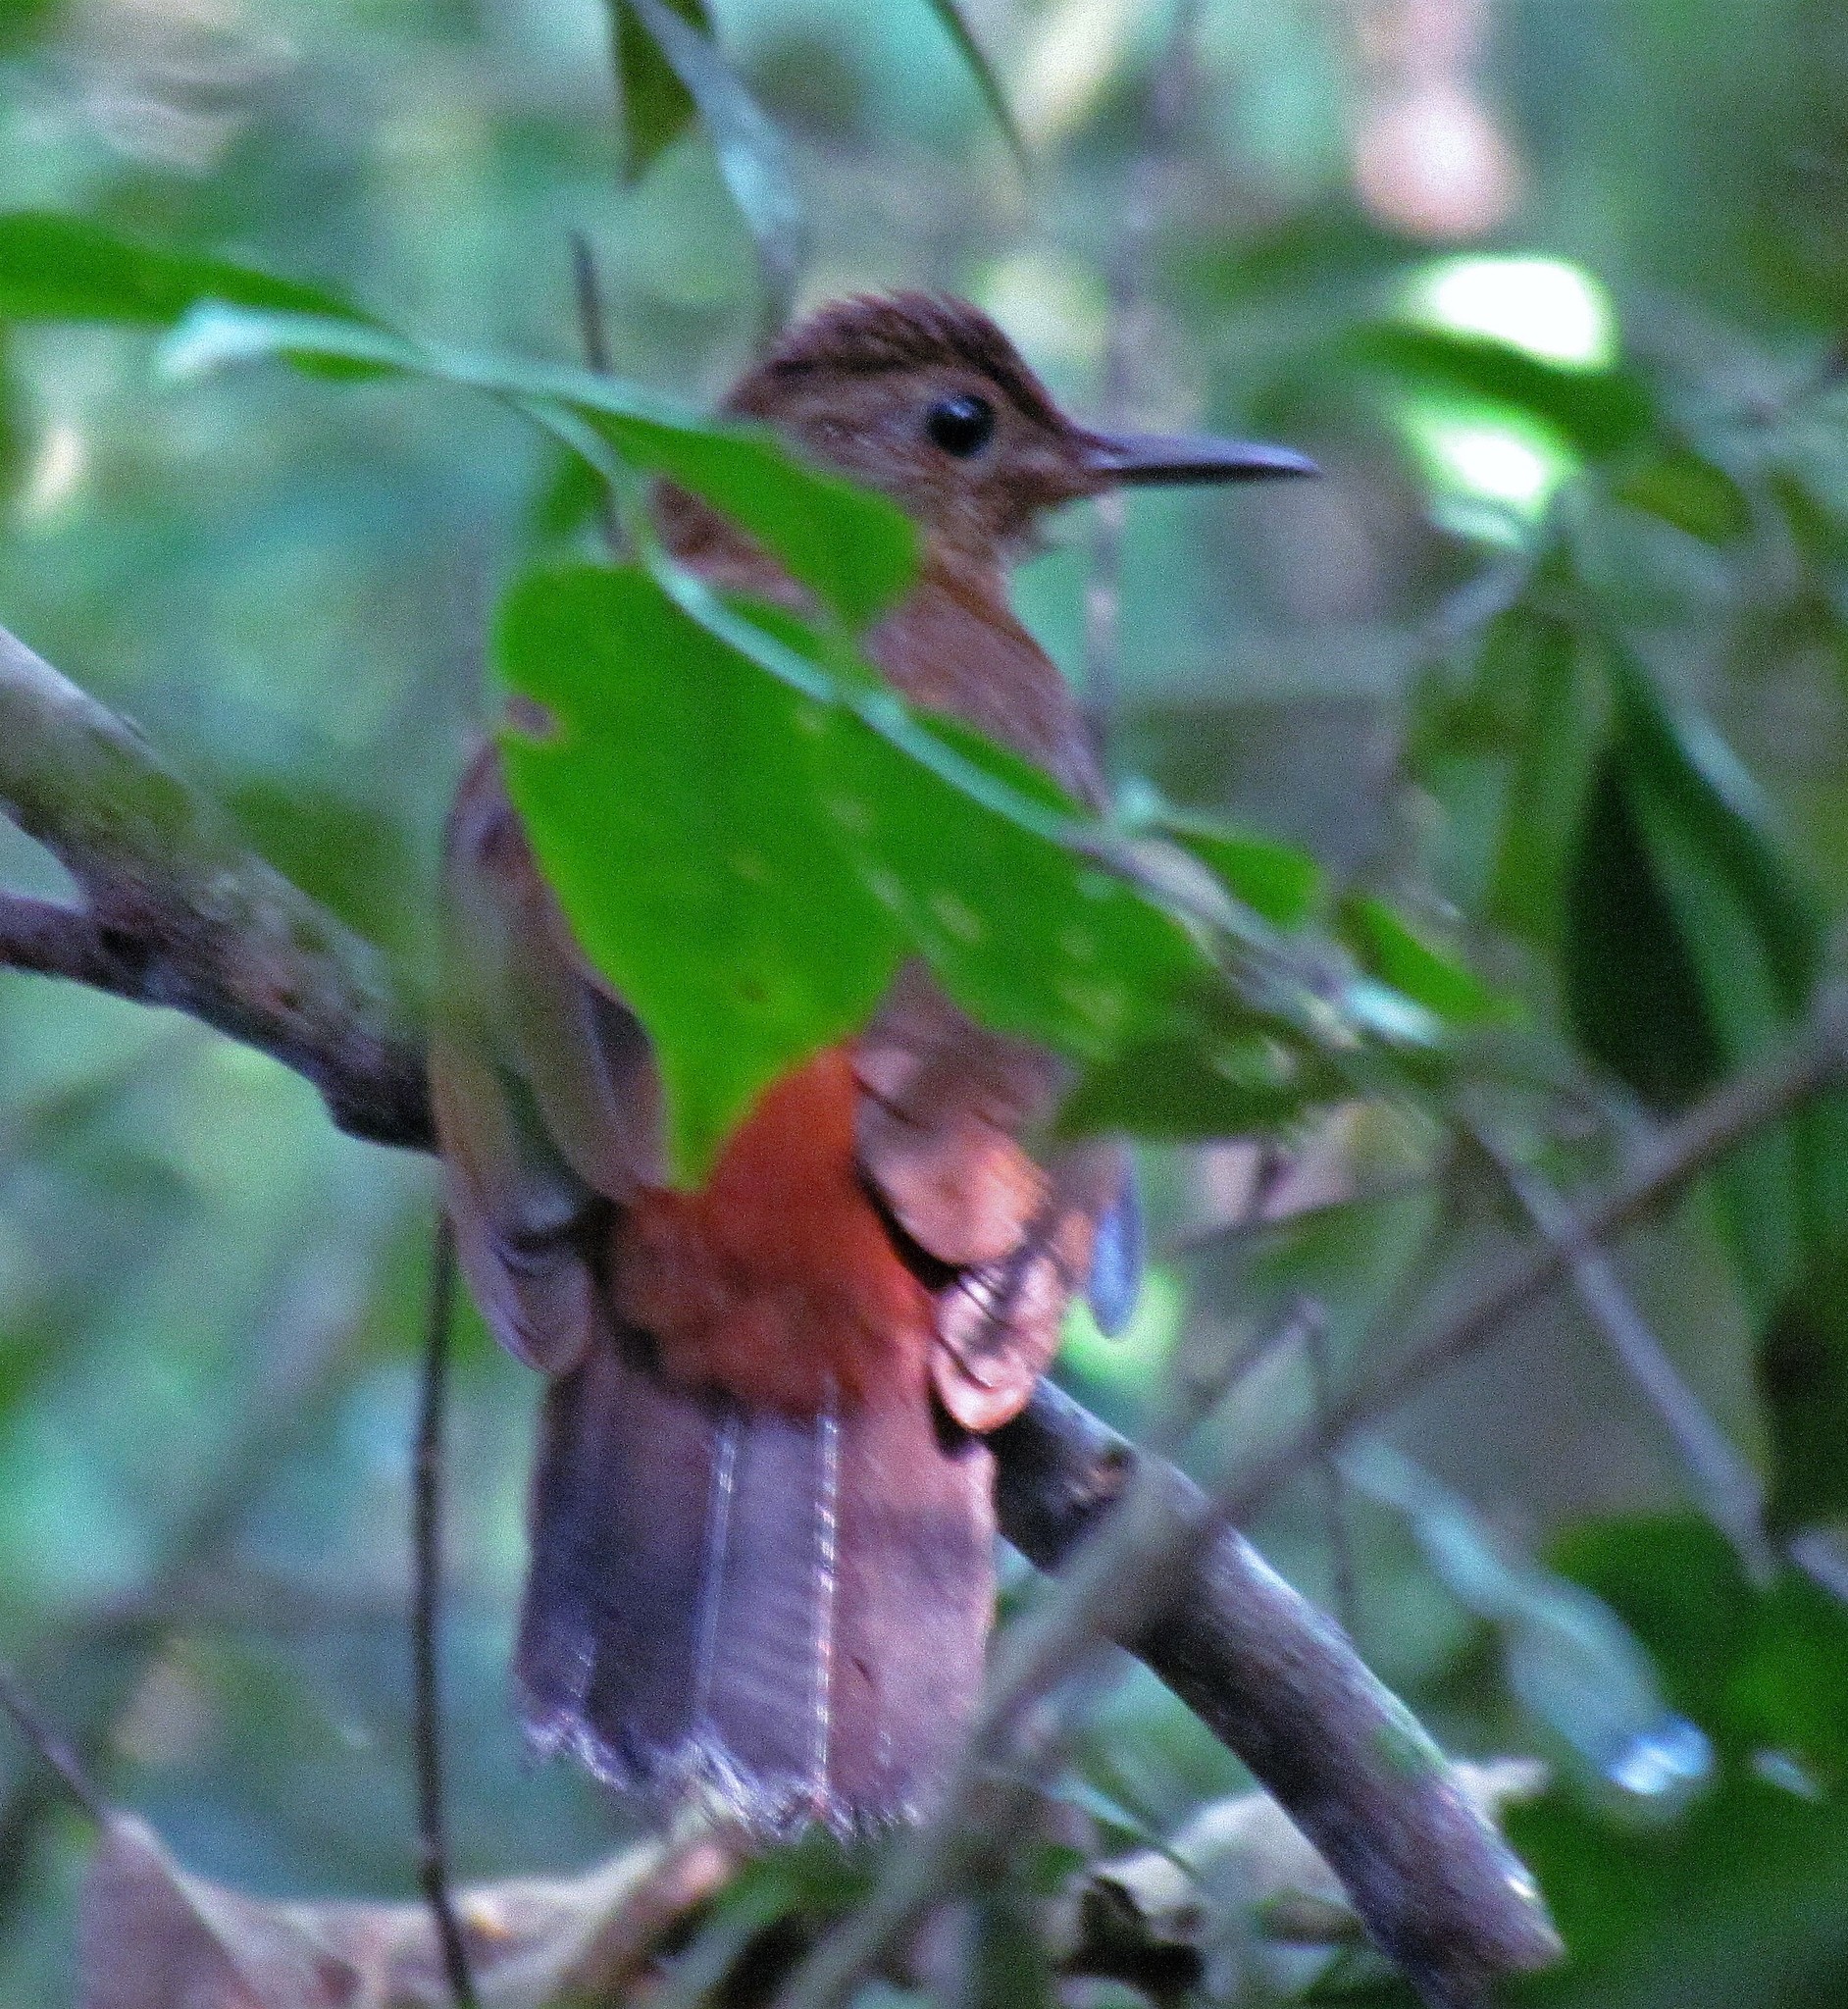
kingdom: Animalia
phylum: Chordata
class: Aves
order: Passeriformes
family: Furnariidae
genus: Sclerurus
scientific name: Sclerurus scansor
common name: Rufous-breasted leaftosser
